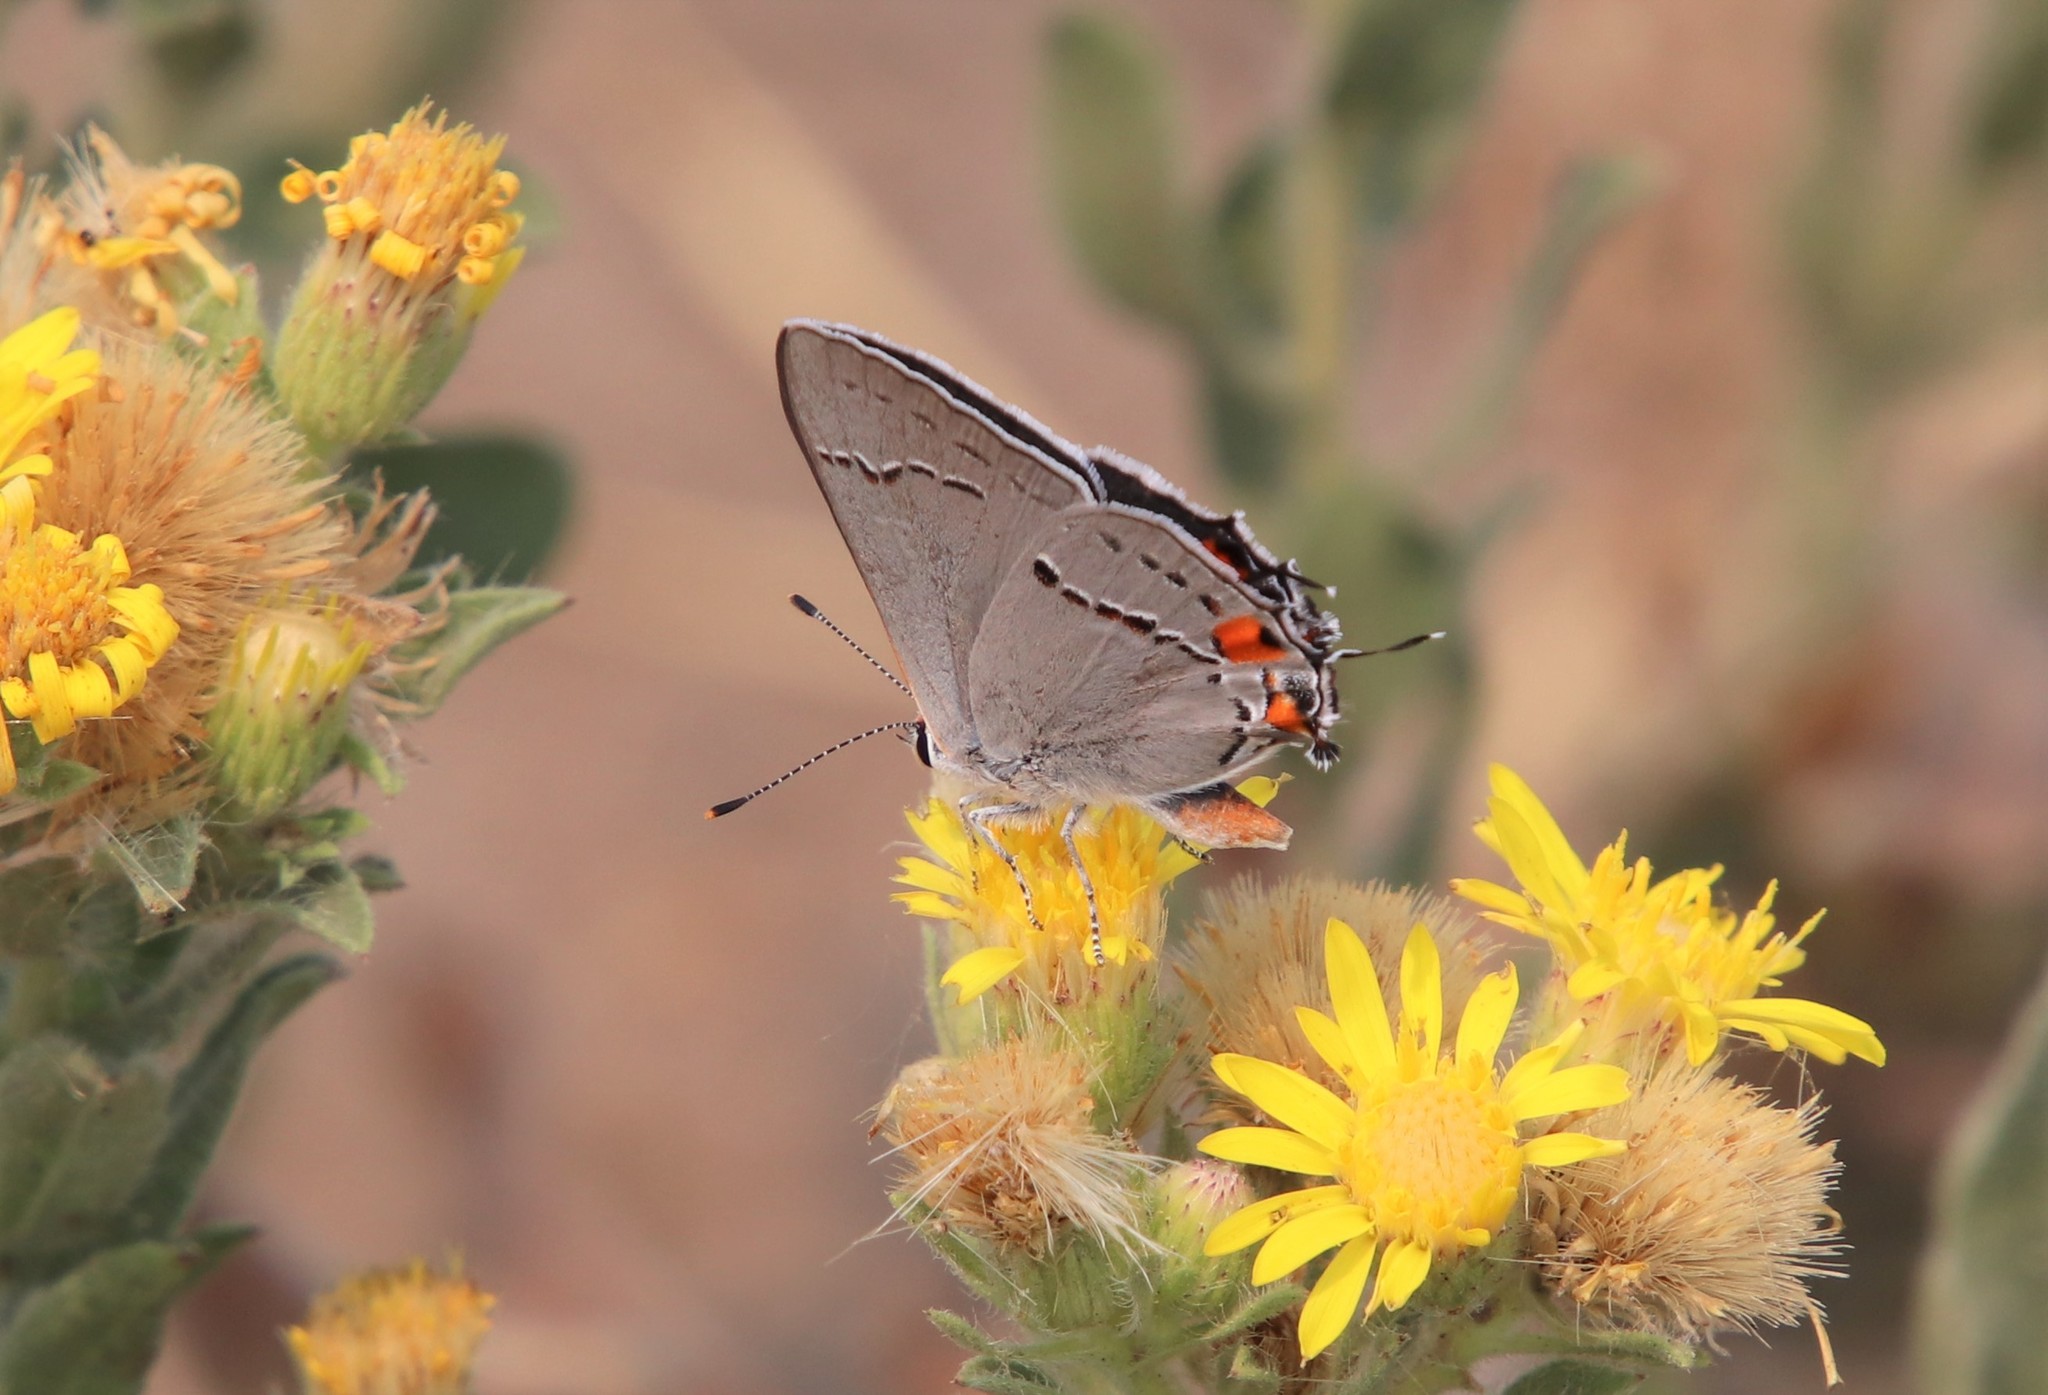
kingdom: Animalia
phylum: Arthropoda
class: Insecta
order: Lepidoptera
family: Lycaenidae
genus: Strymon
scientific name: Strymon melinus
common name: Gray hairstreak
